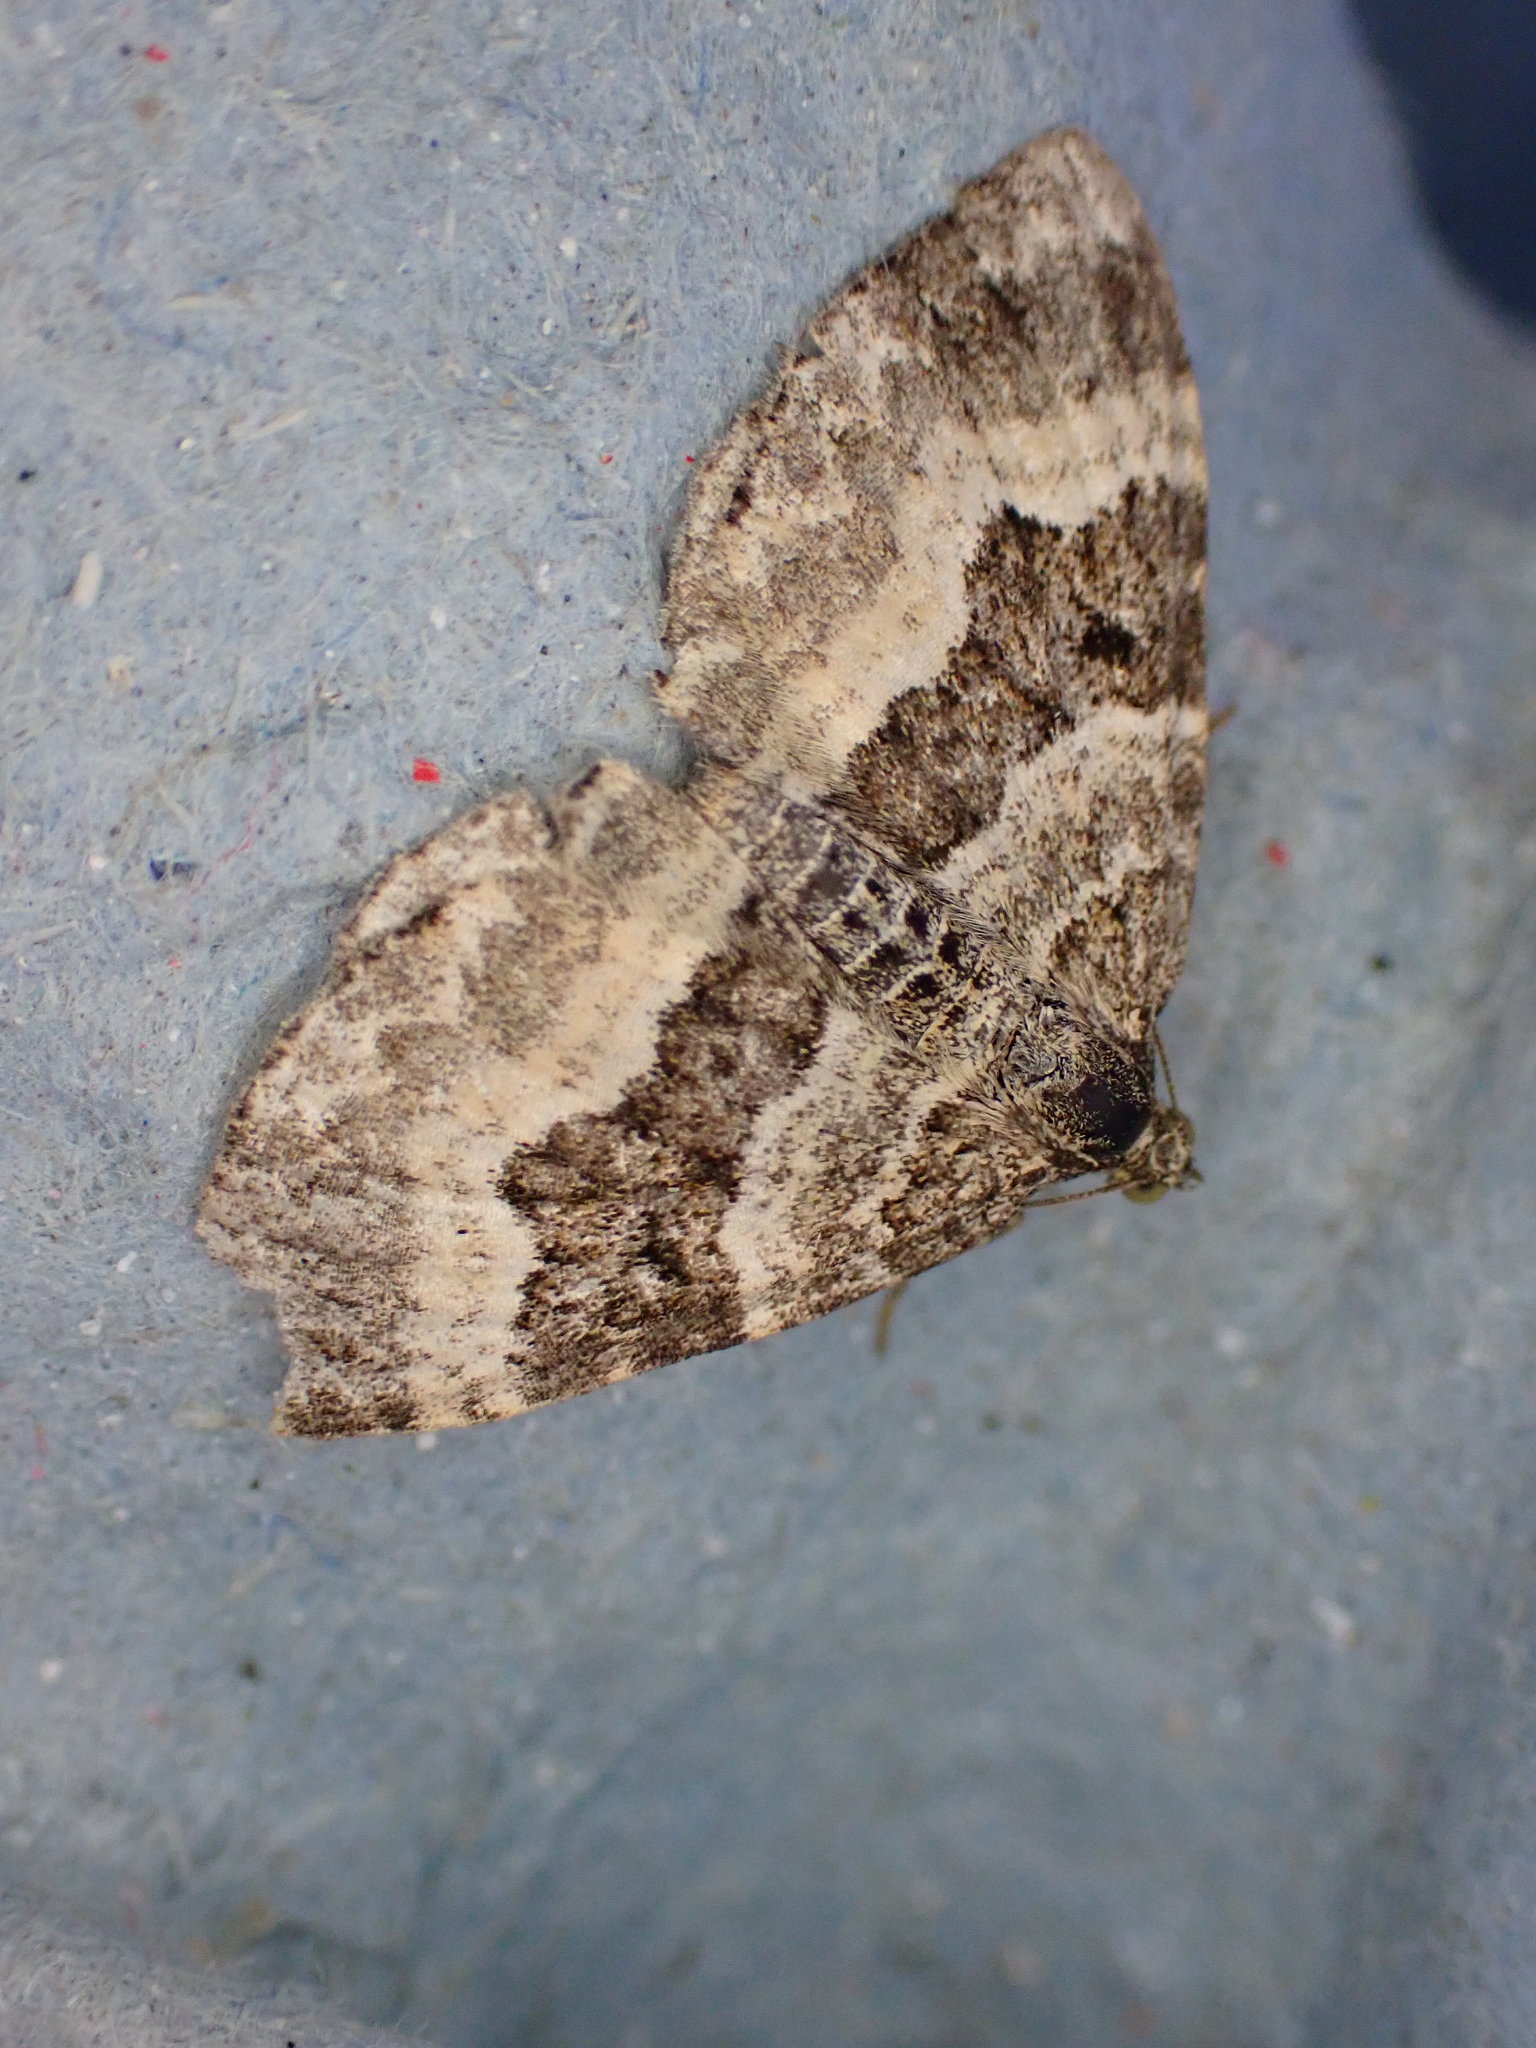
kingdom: Animalia
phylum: Arthropoda
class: Insecta
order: Lepidoptera
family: Geometridae
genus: Epirrhoe
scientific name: Epirrhoe alternata
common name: Common carpet
